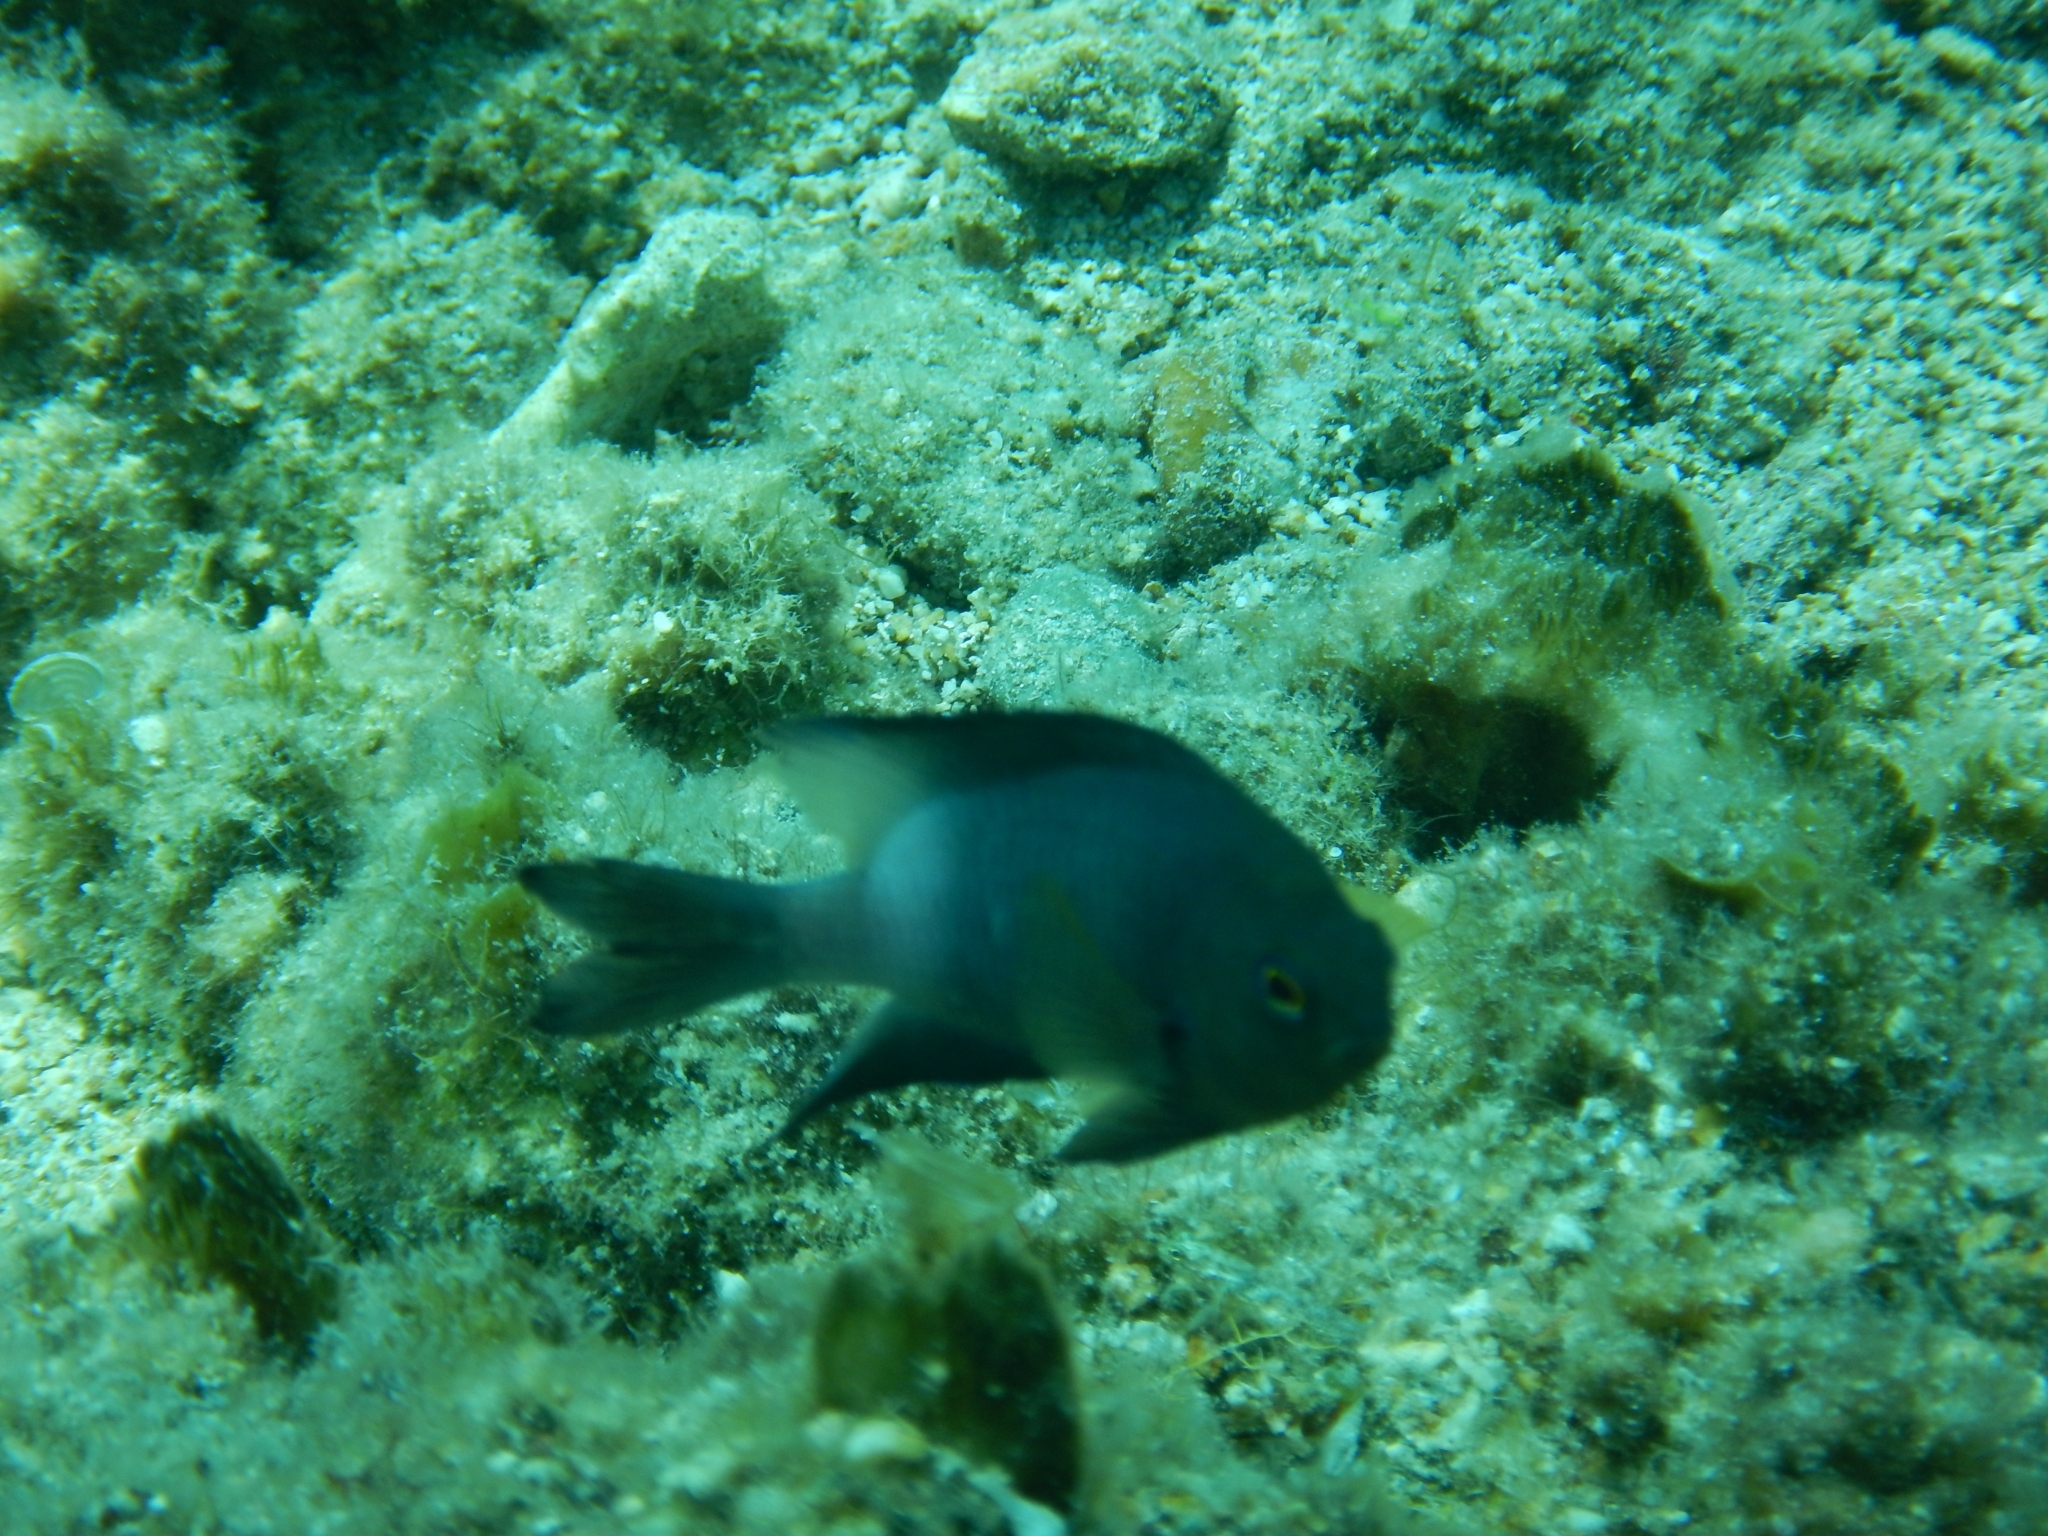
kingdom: Animalia
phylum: Chordata
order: Perciformes
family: Pomacentridae
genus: Stegastes
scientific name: Stegastes partitus
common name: Bicolor damselfish
